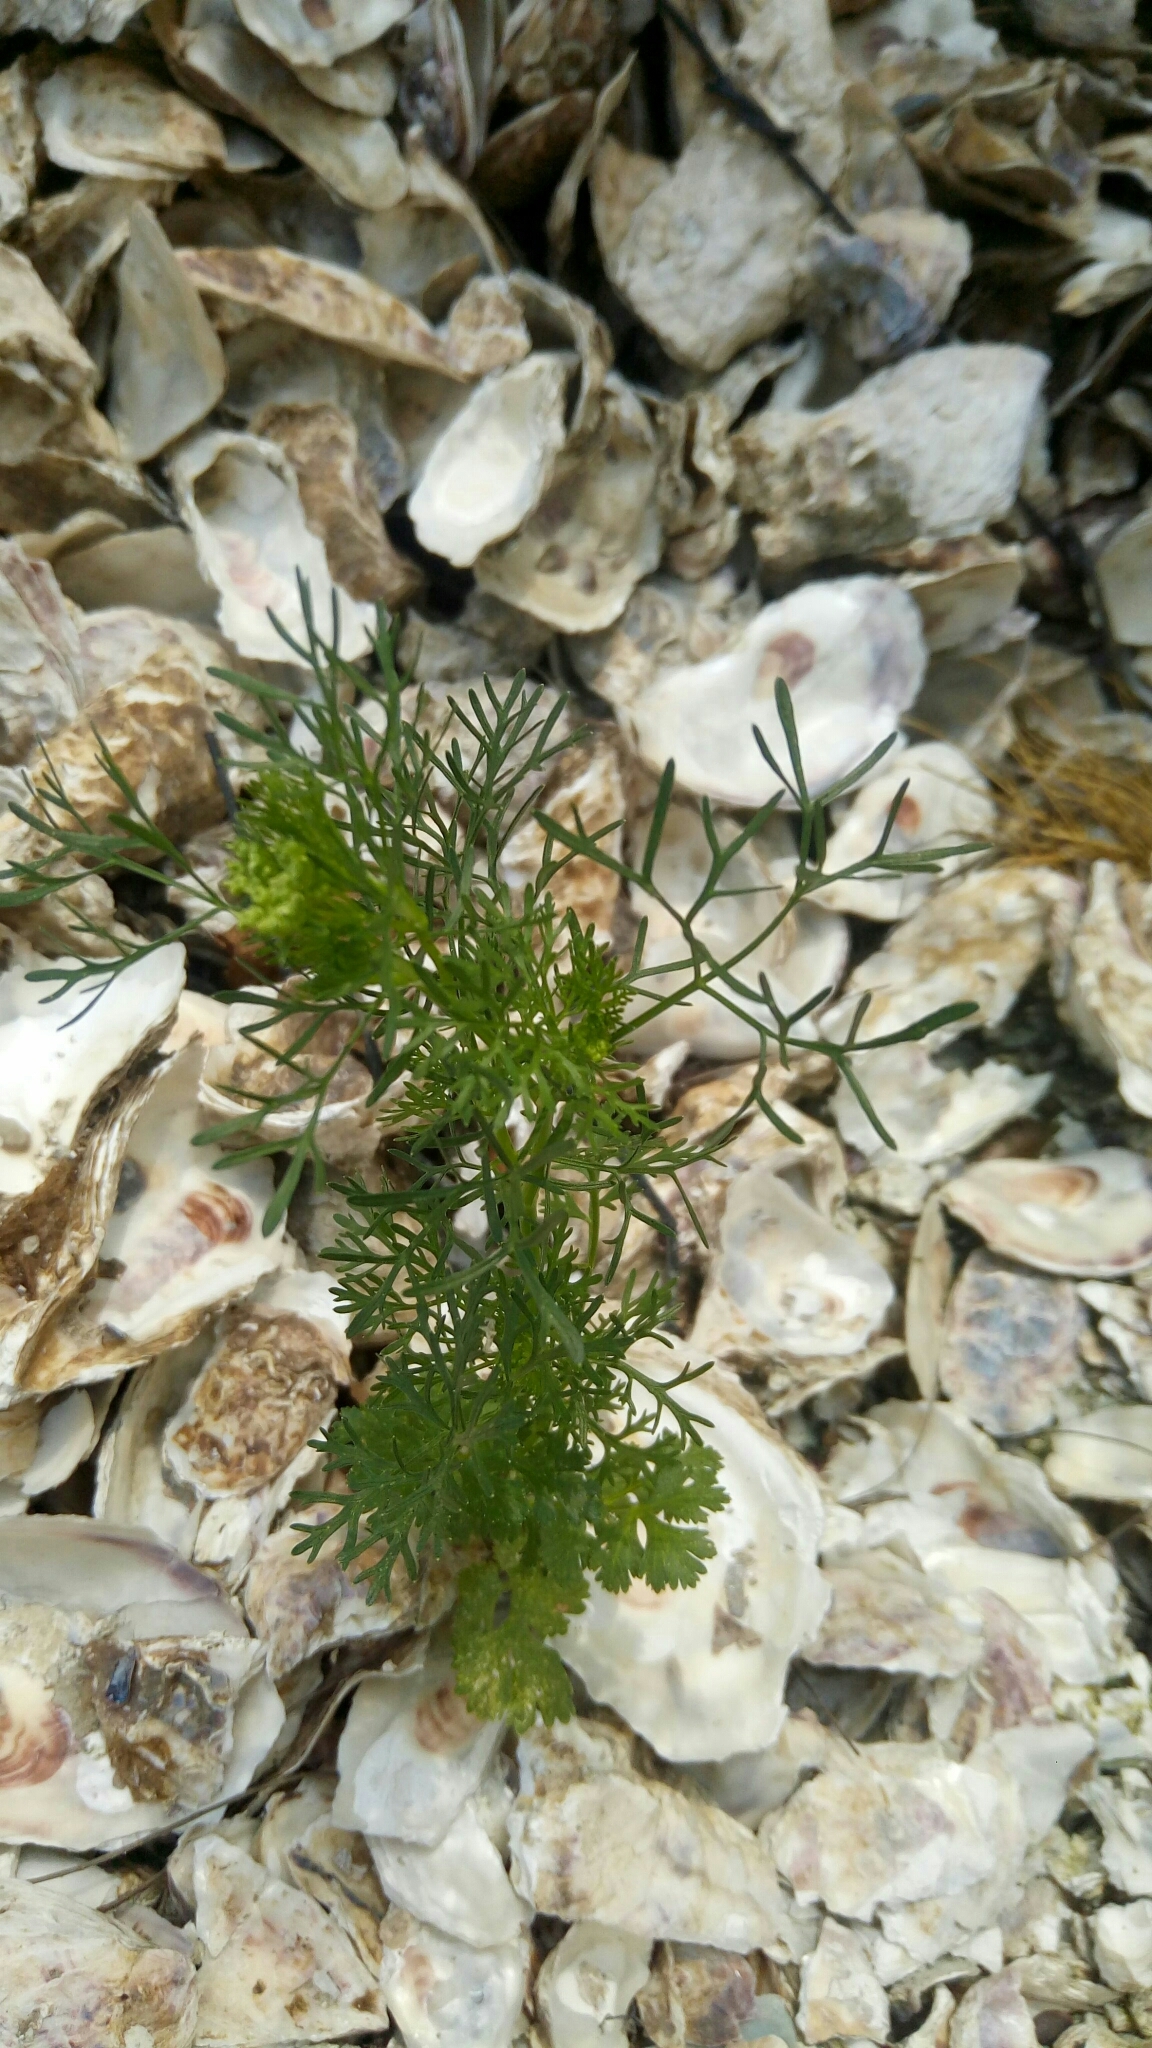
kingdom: Plantae
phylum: Tracheophyta
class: Magnoliopsida
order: Asterales
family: Asteraceae
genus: Artemisia
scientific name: Artemisia capillaris
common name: Yin-chen wormwood
